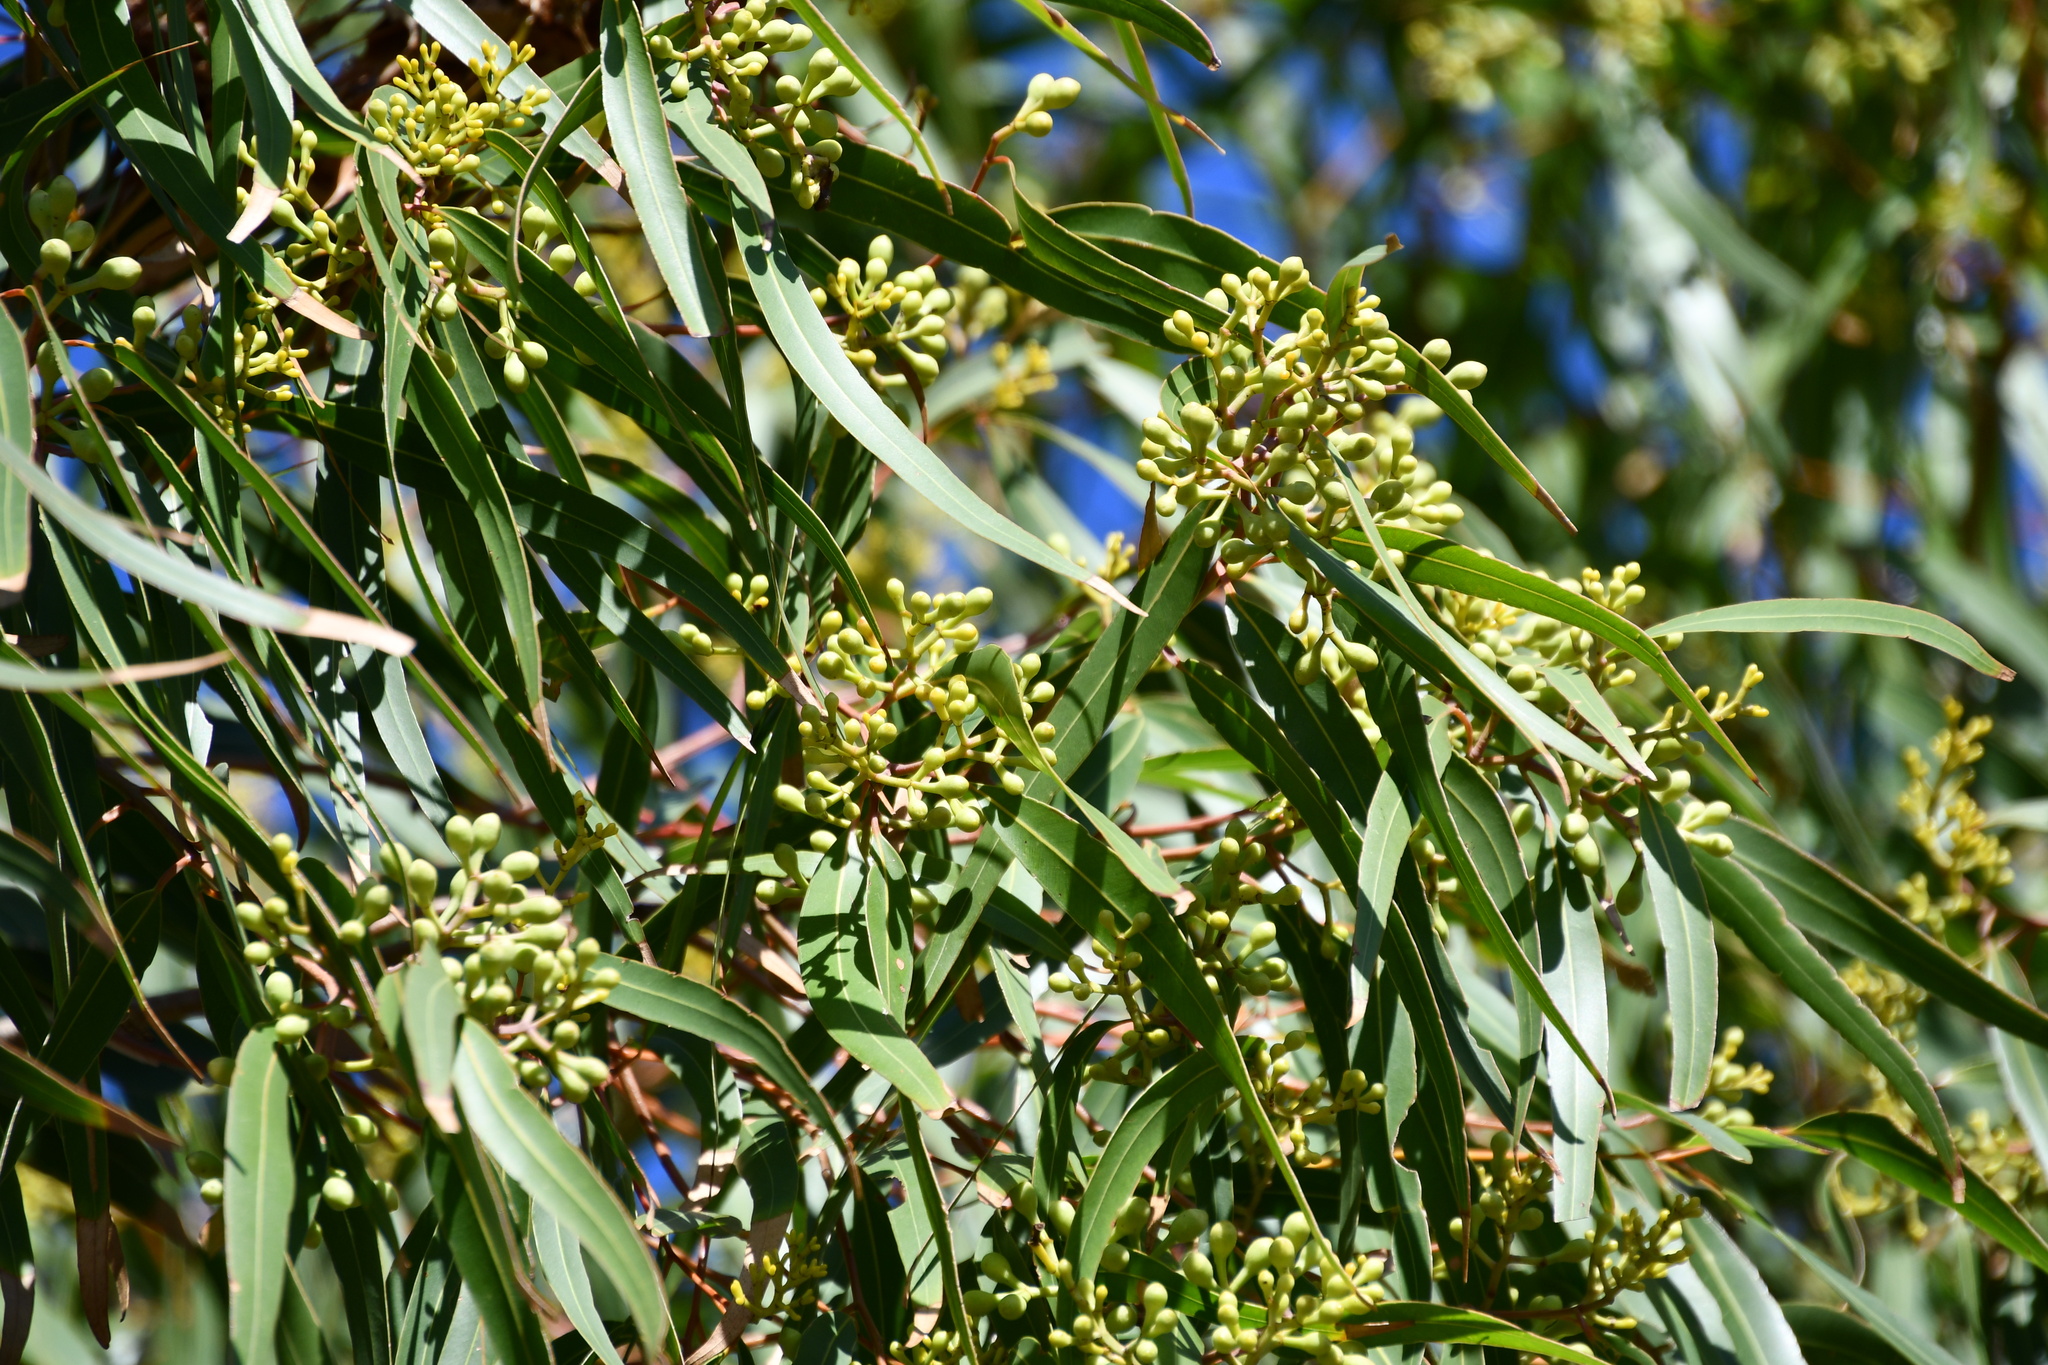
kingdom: Plantae
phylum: Tracheophyta
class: Magnoliopsida
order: Myrtales
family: Myrtaceae
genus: Corymbia
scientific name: Corymbia citriodora
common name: Lemonscented gum
